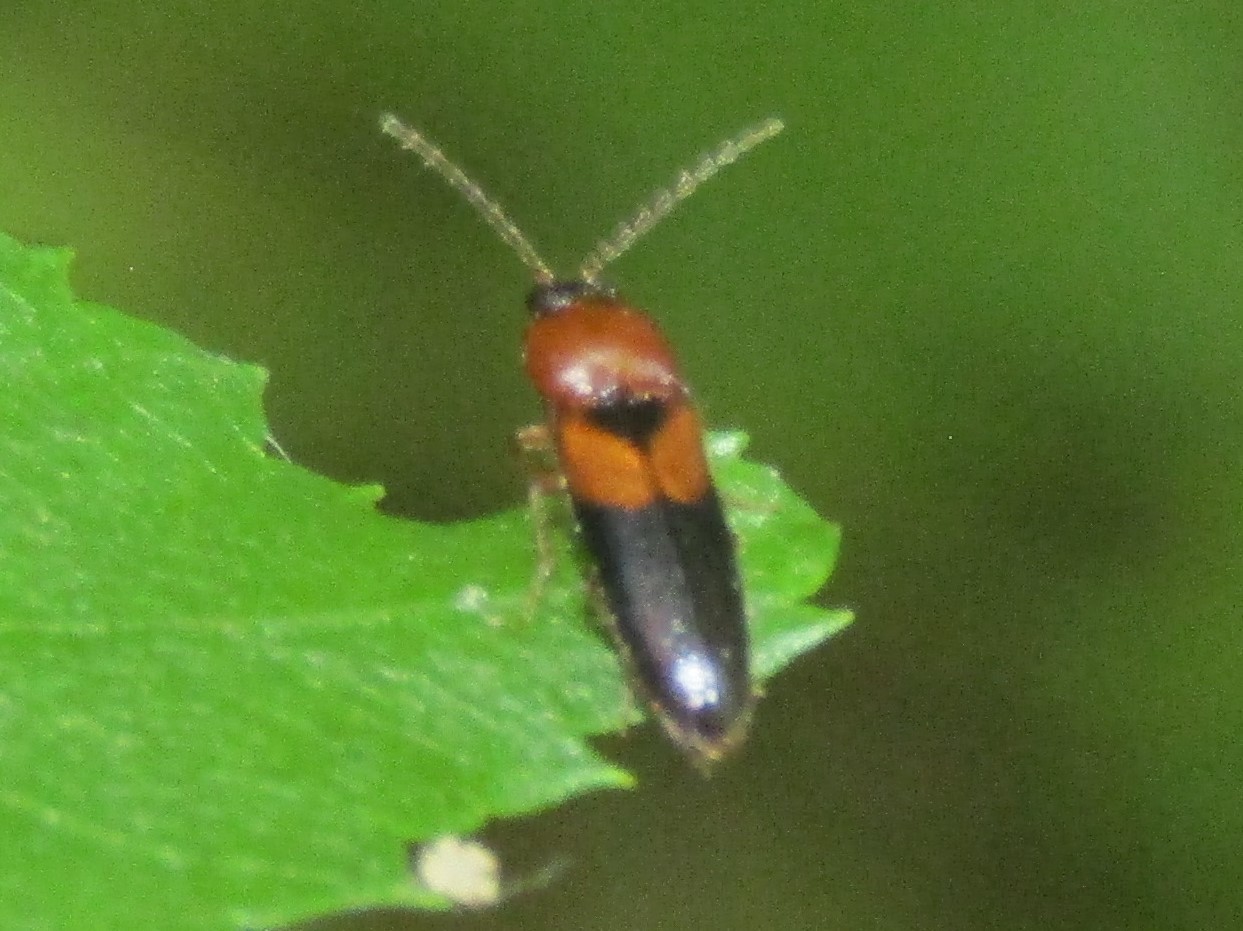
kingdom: Animalia
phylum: Arthropoda
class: Insecta
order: Coleoptera
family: Elateridae
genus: Ampedus
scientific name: Ampedus areolatus
